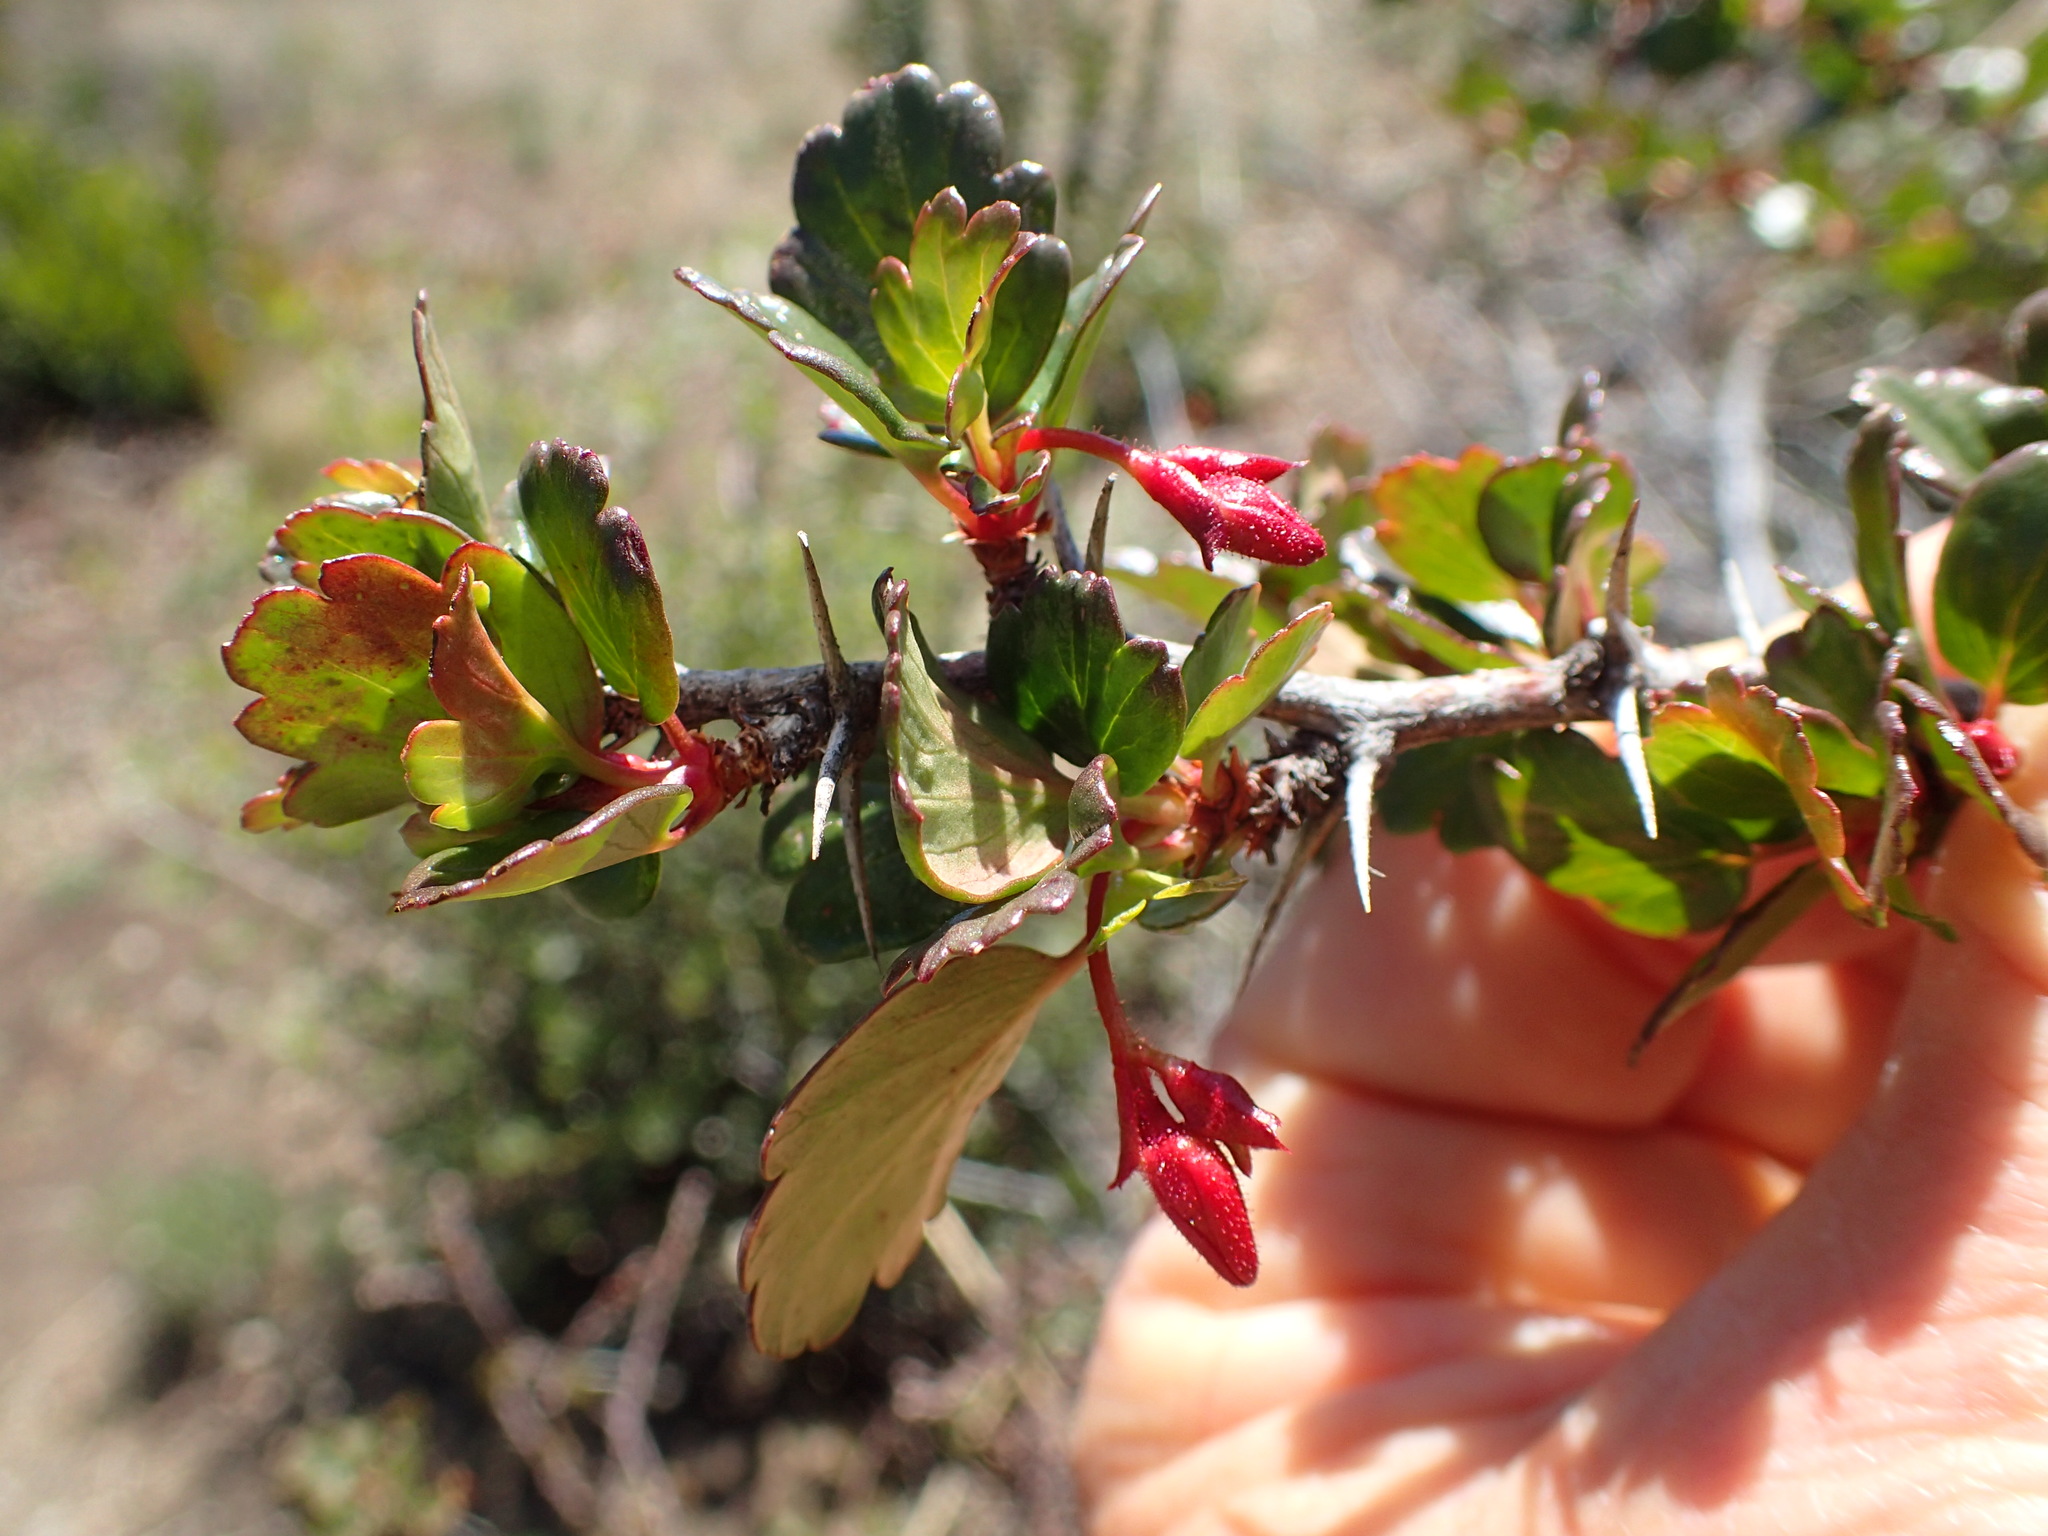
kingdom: Plantae
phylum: Tracheophyta
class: Magnoliopsida
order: Saxifragales
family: Grossulariaceae
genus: Ribes
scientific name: Ribes speciosum
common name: Fuchsia-flower gooseberry
